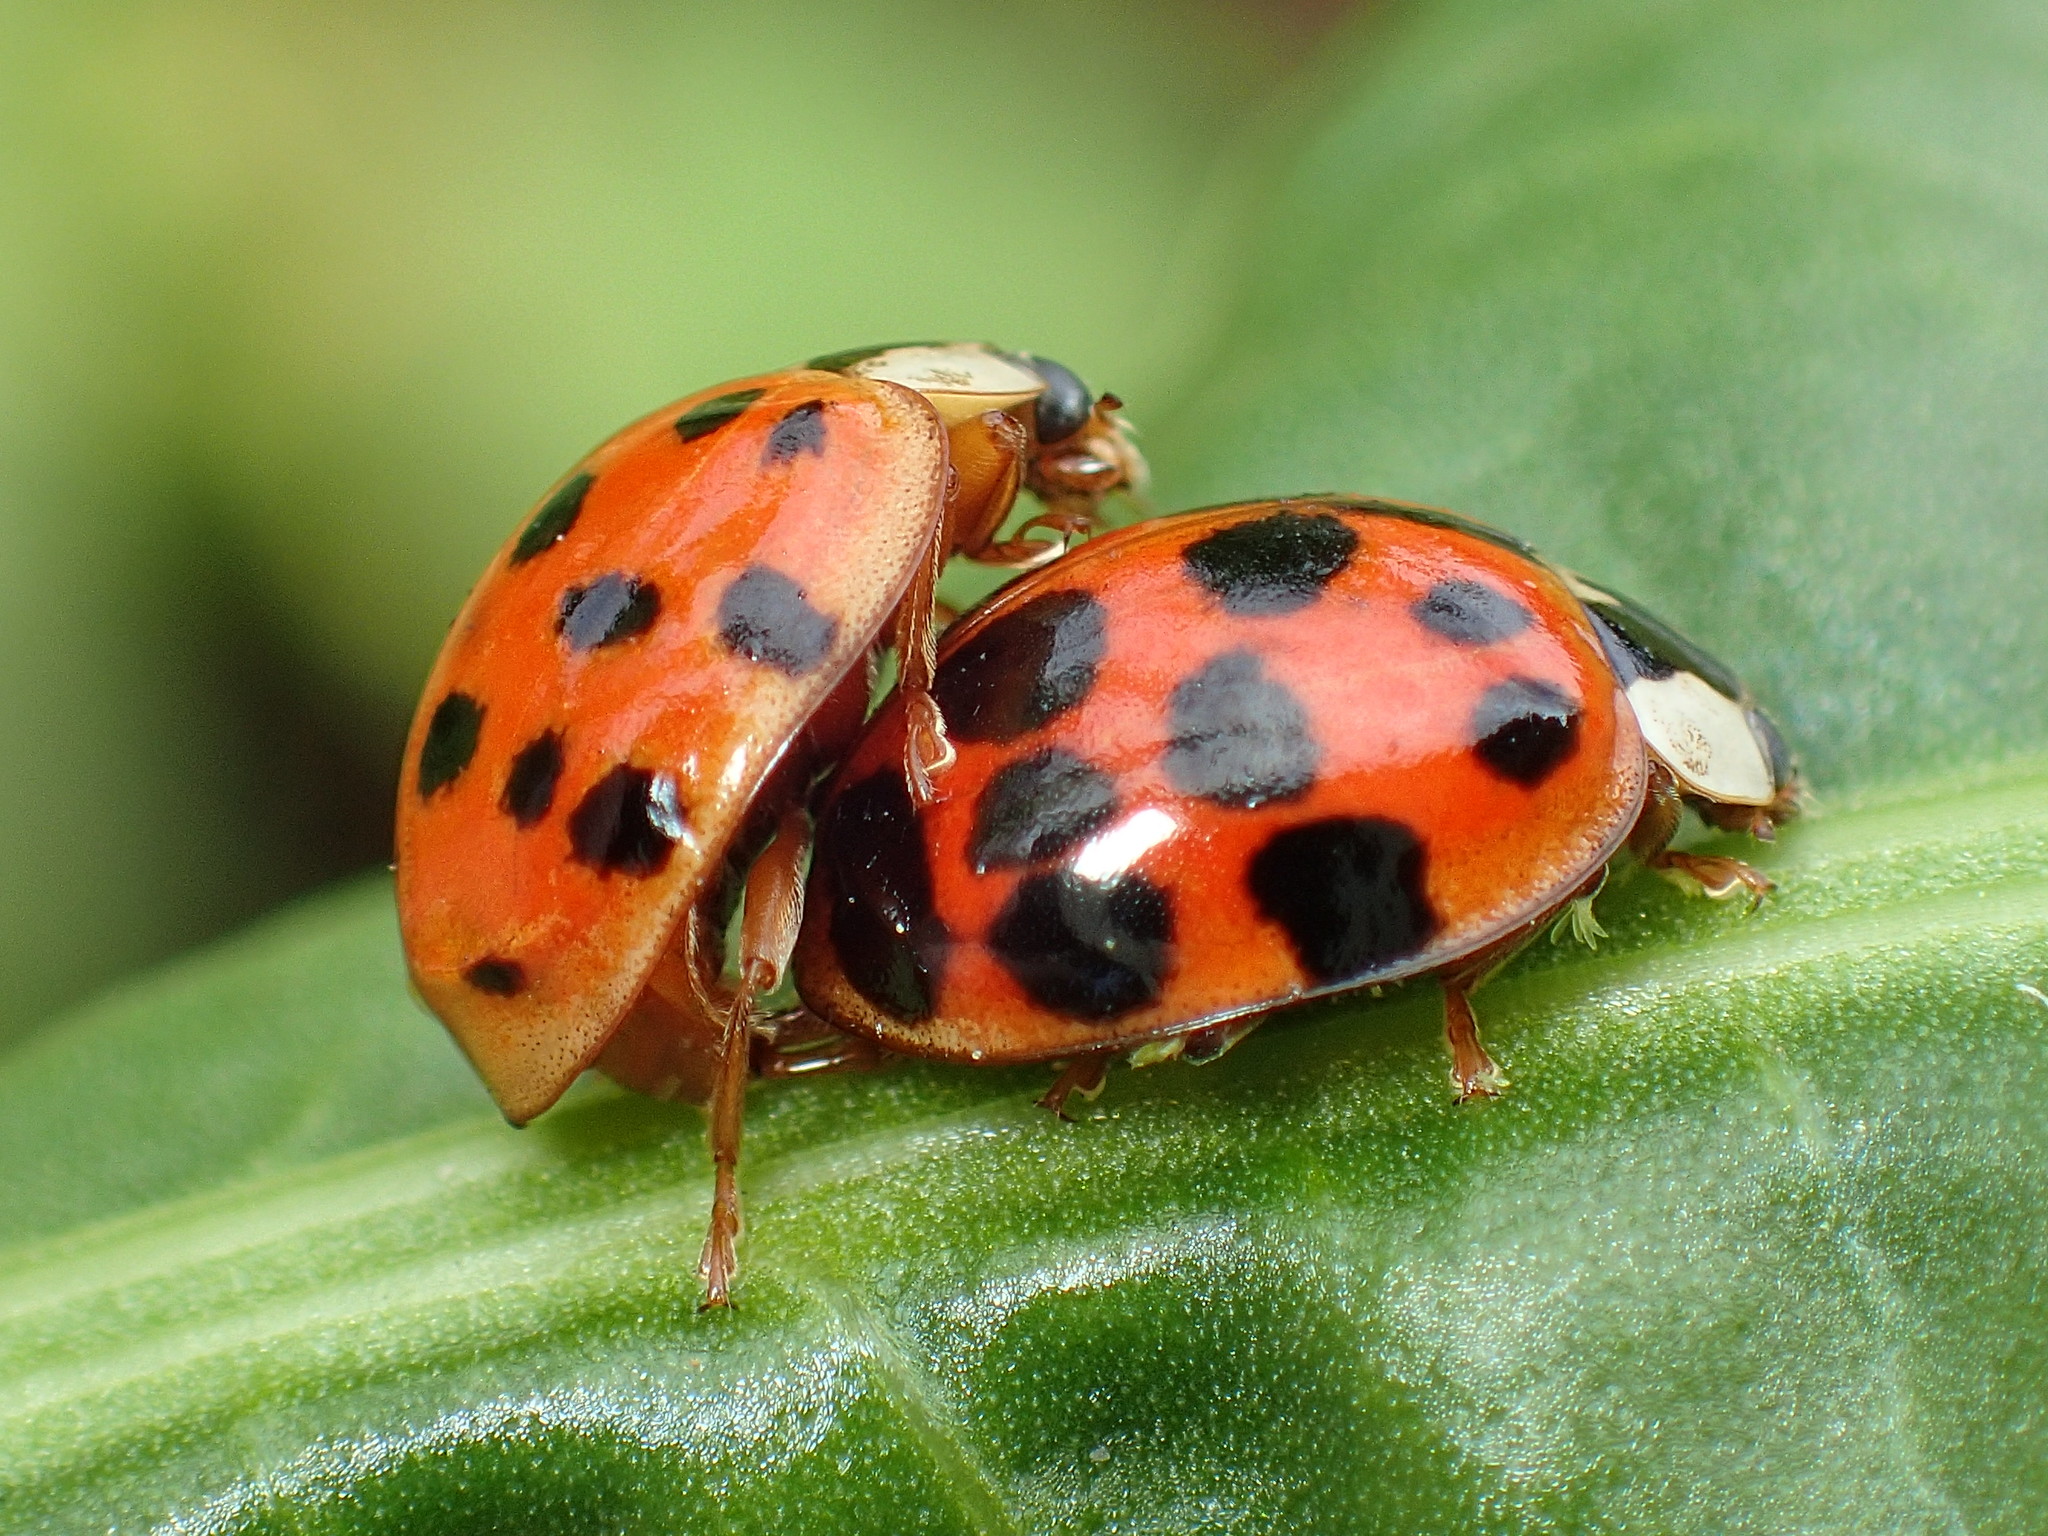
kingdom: Animalia
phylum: Arthropoda
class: Insecta
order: Coleoptera
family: Coccinellidae
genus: Harmonia
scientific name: Harmonia axyridis
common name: Harlequin ladybird
